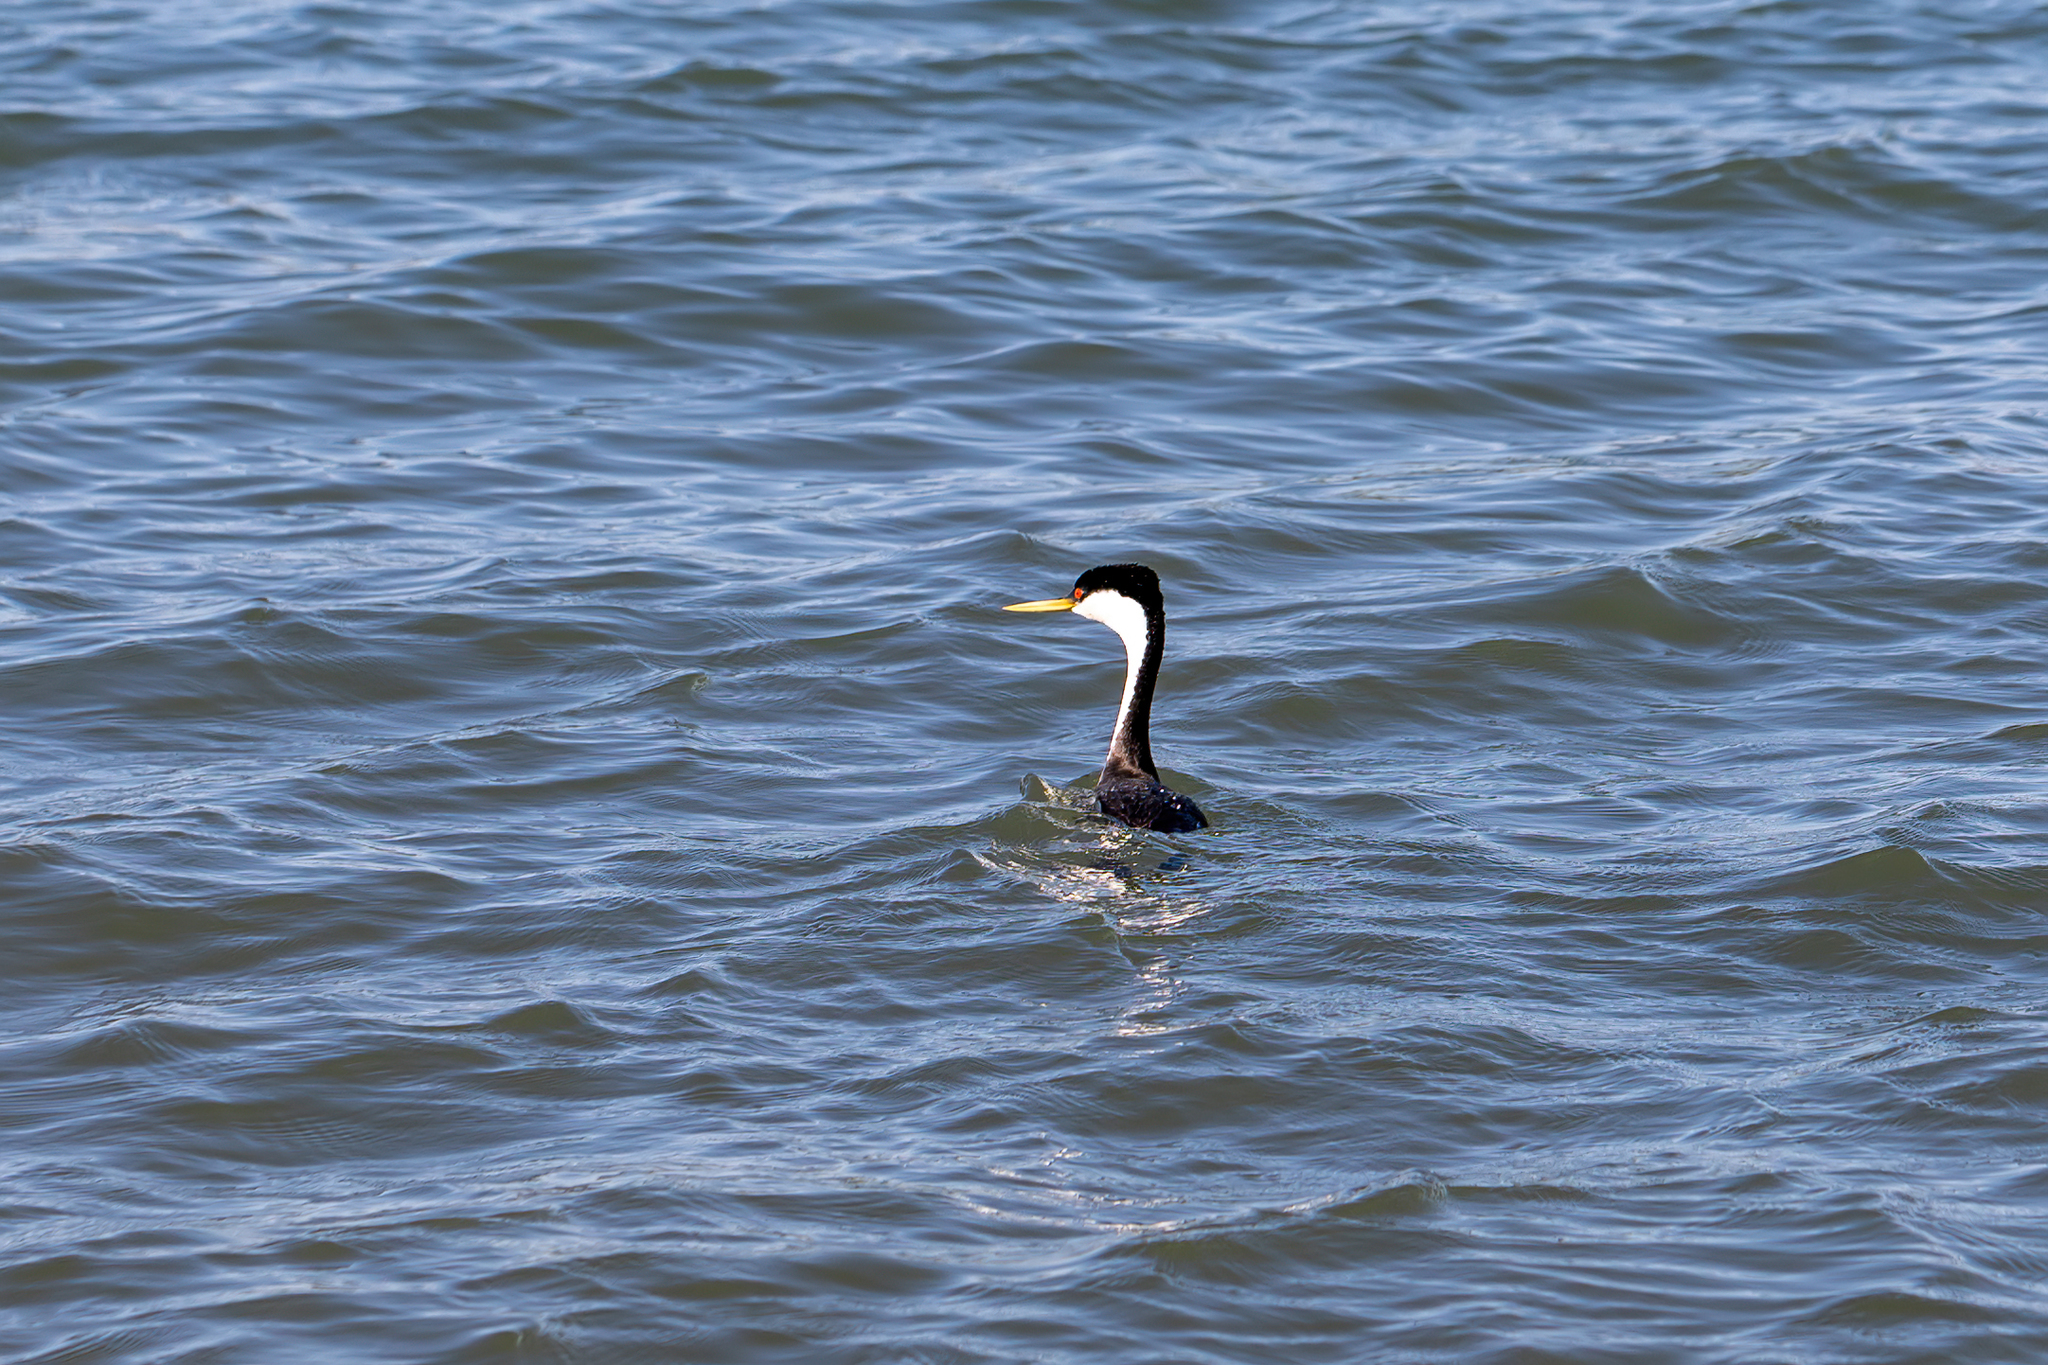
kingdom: Animalia
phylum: Chordata
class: Aves
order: Podicipediformes
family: Podicipedidae
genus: Aechmophorus
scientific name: Aechmophorus occidentalis
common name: Western grebe
